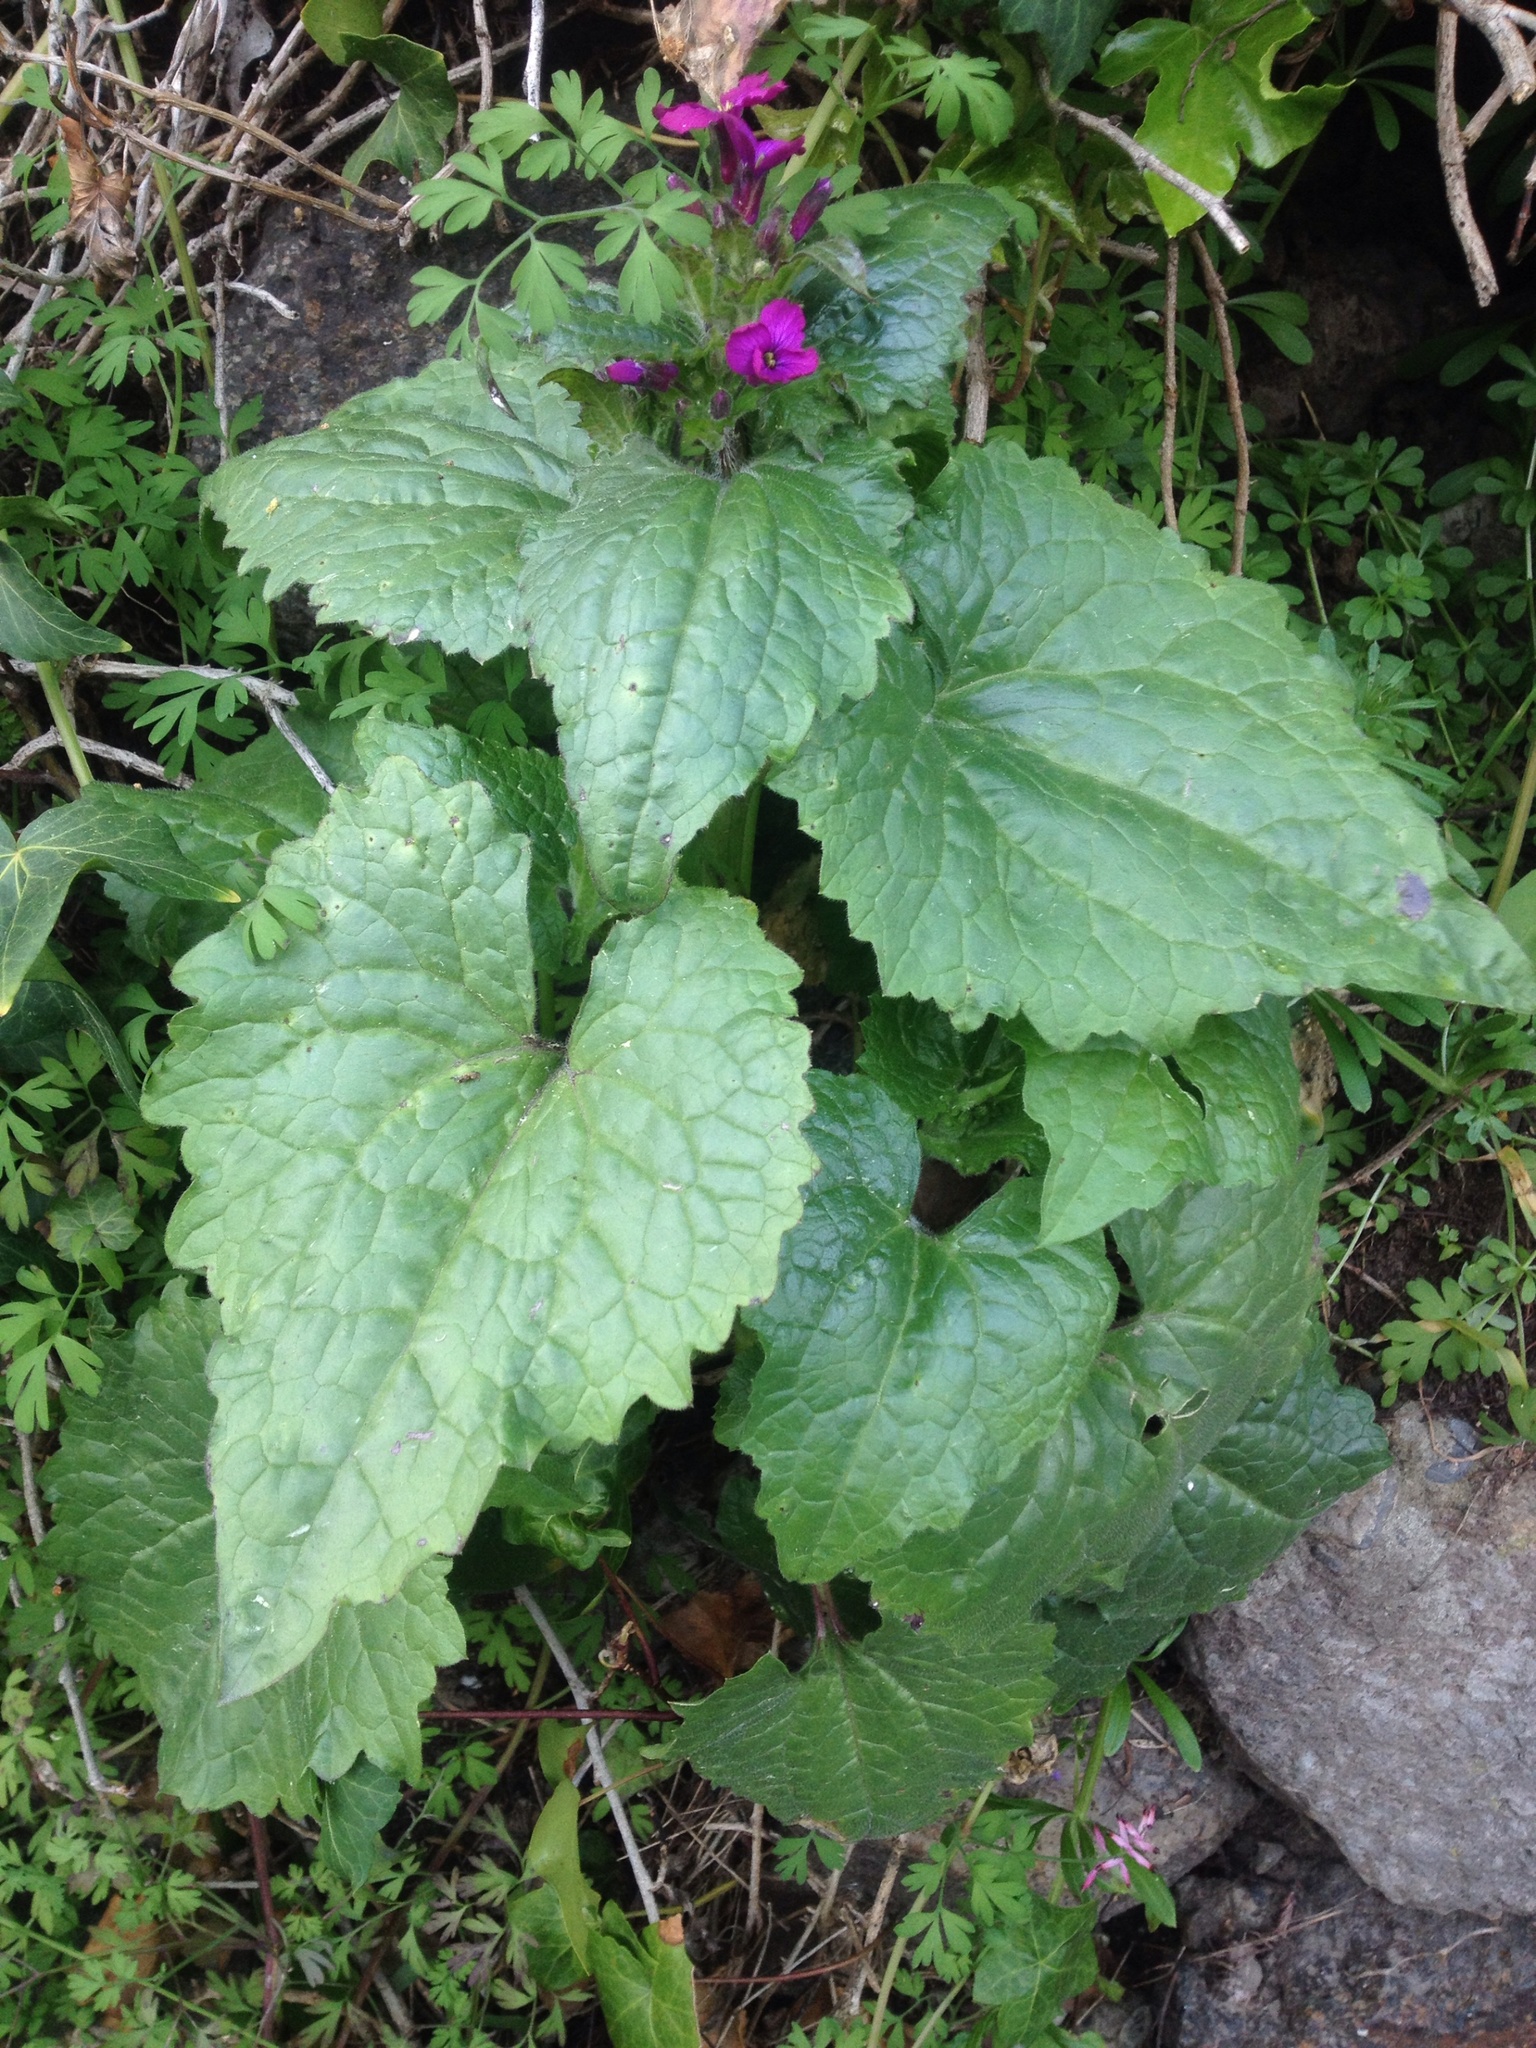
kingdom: Plantae
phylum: Tracheophyta
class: Magnoliopsida
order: Brassicales
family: Brassicaceae
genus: Lunaria
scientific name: Lunaria annua
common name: Honesty
